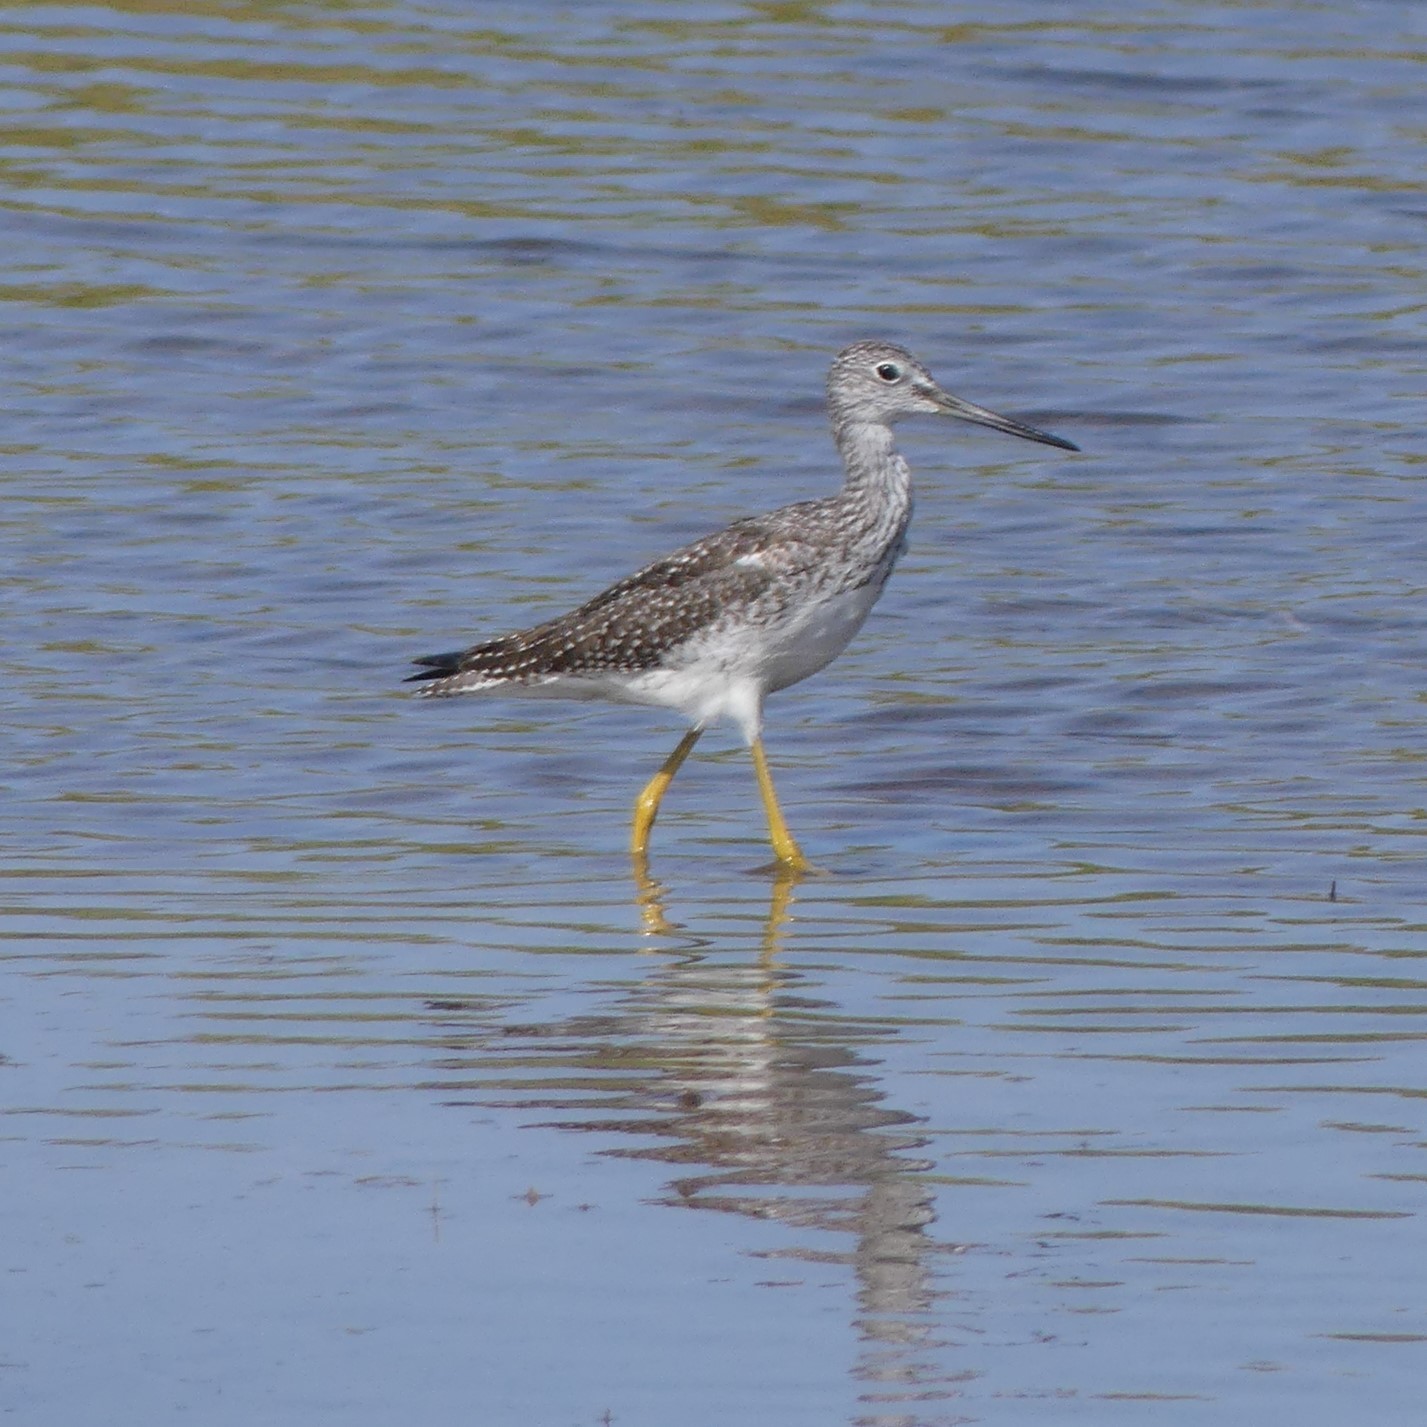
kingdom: Animalia
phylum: Chordata
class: Aves
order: Charadriiformes
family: Scolopacidae
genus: Tringa
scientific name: Tringa melanoleuca
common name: Greater yellowlegs
